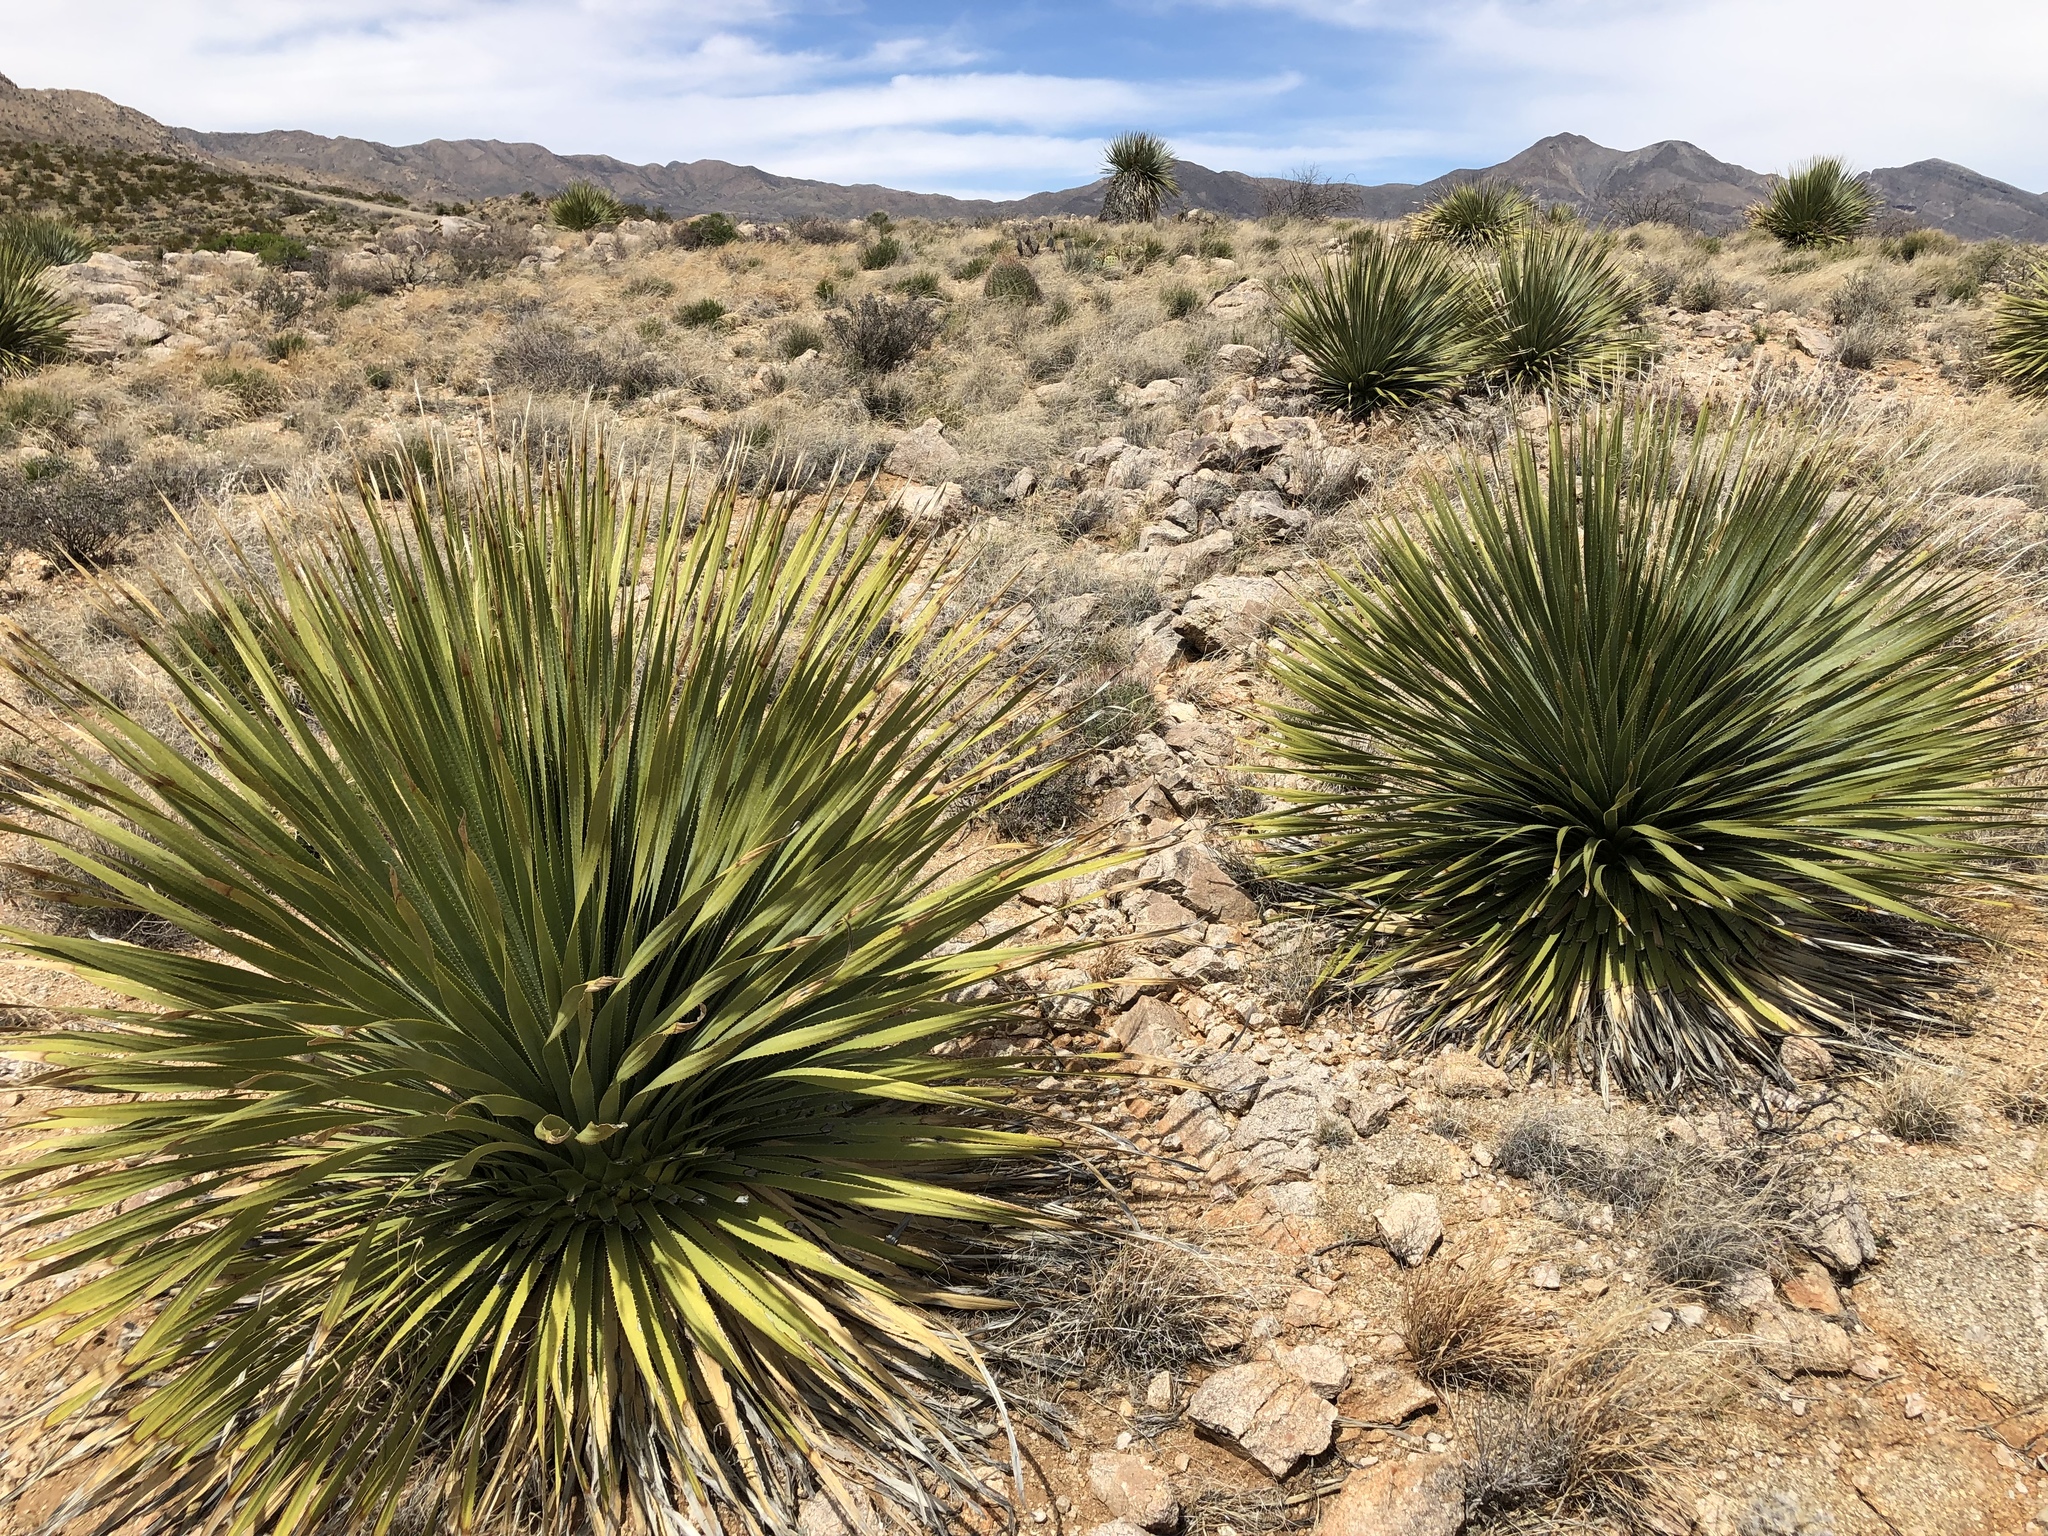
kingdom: Plantae
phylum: Tracheophyta
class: Liliopsida
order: Asparagales
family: Asparagaceae
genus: Dasylirion
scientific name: Dasylirion wheeleri
